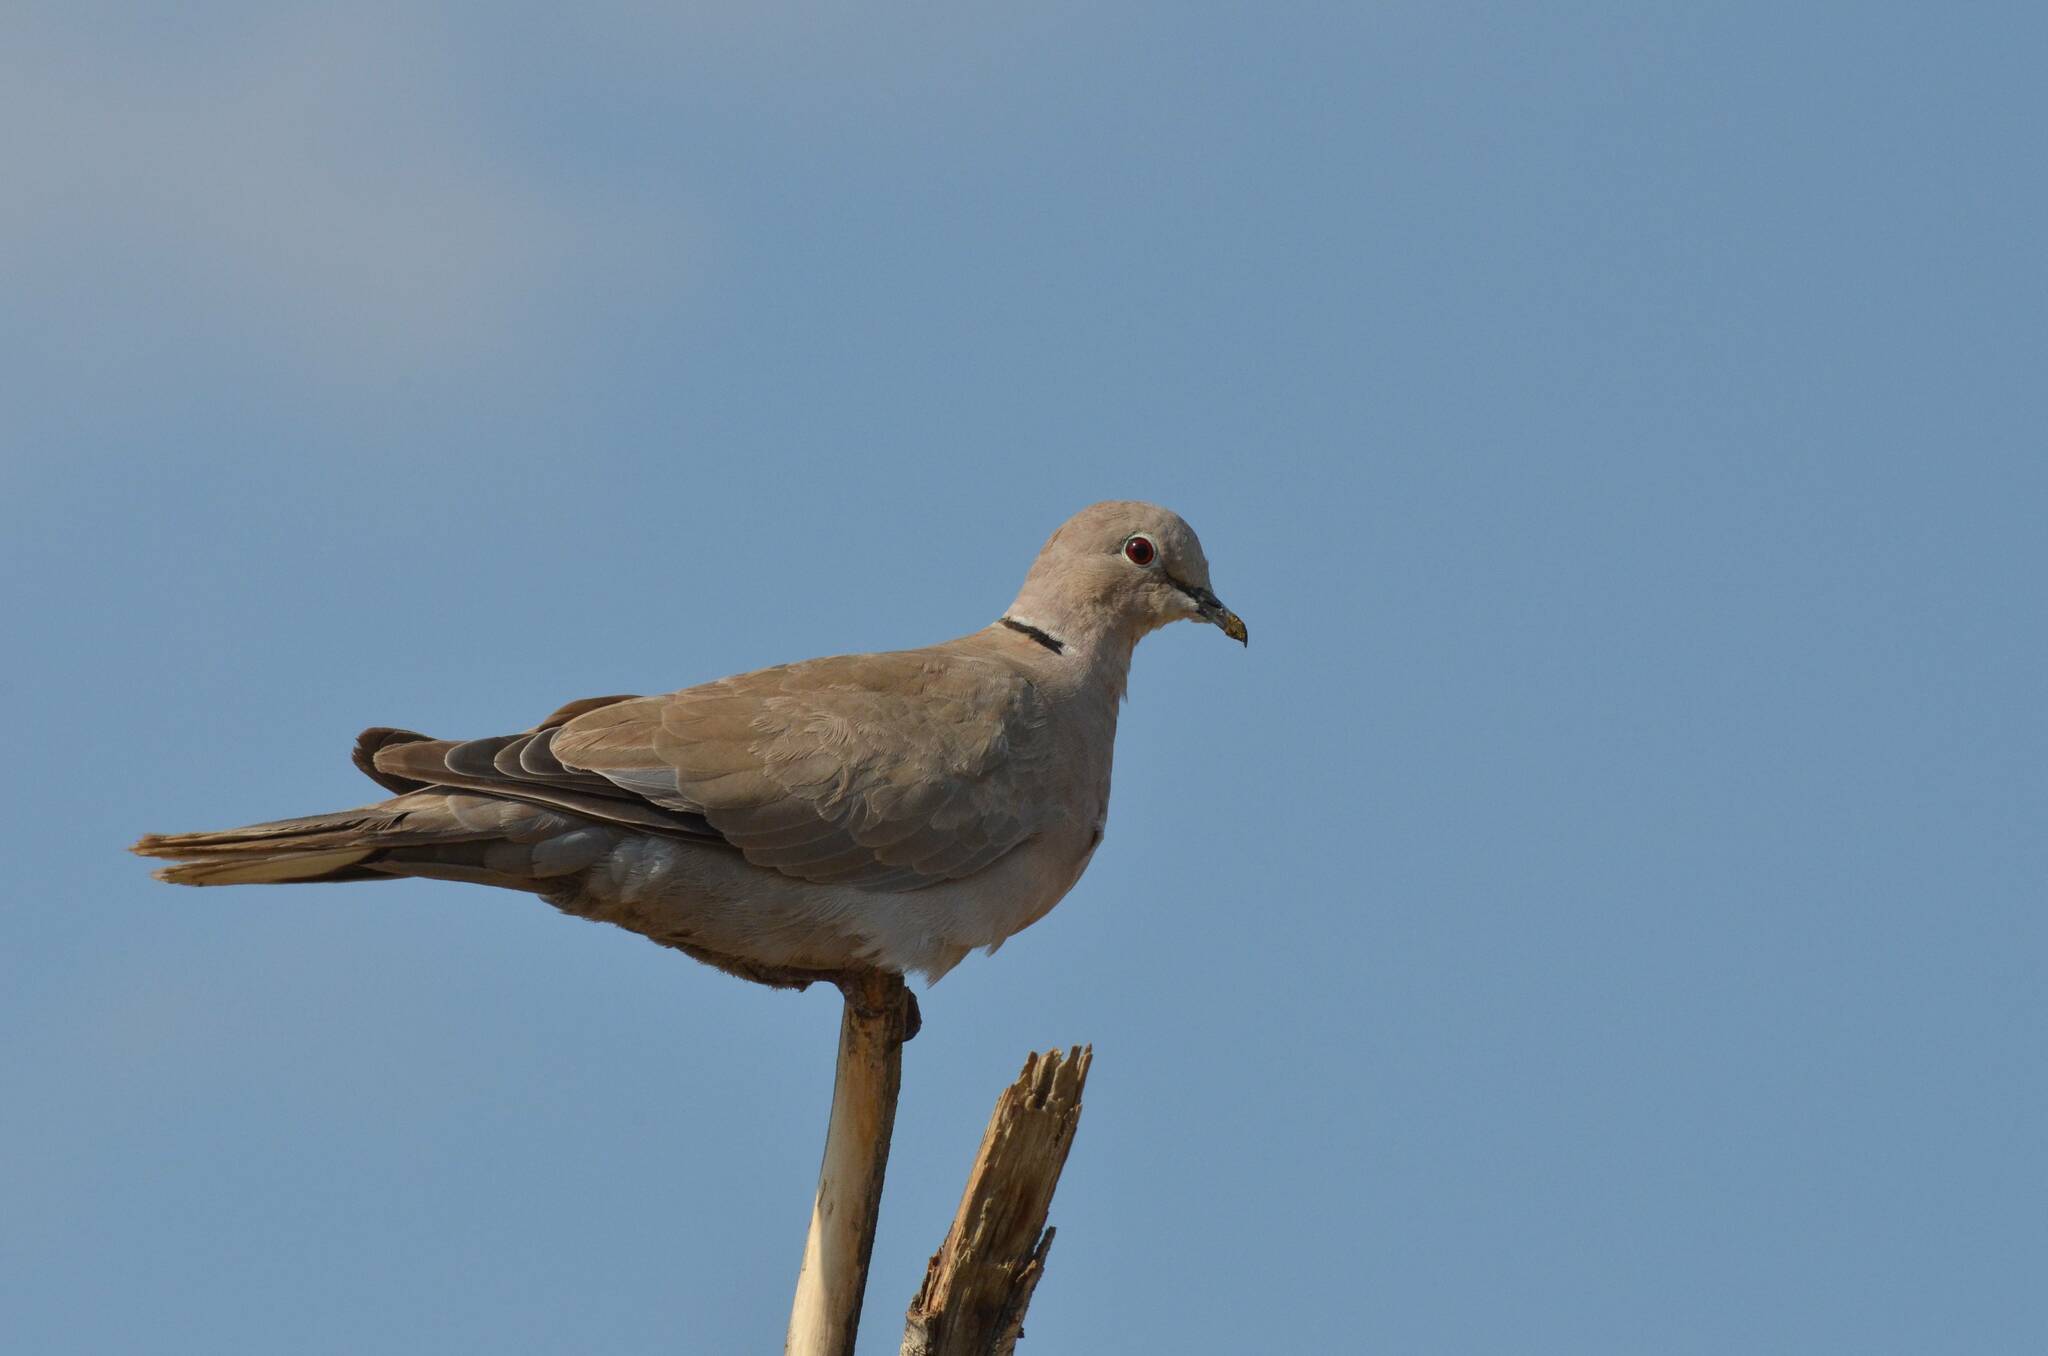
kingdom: Animalia
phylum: Chordata
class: Aves
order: Columbiformes
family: Columbidae
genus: Streptopelia
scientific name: Streptopelia decaocto
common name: Eurasian collared dove
